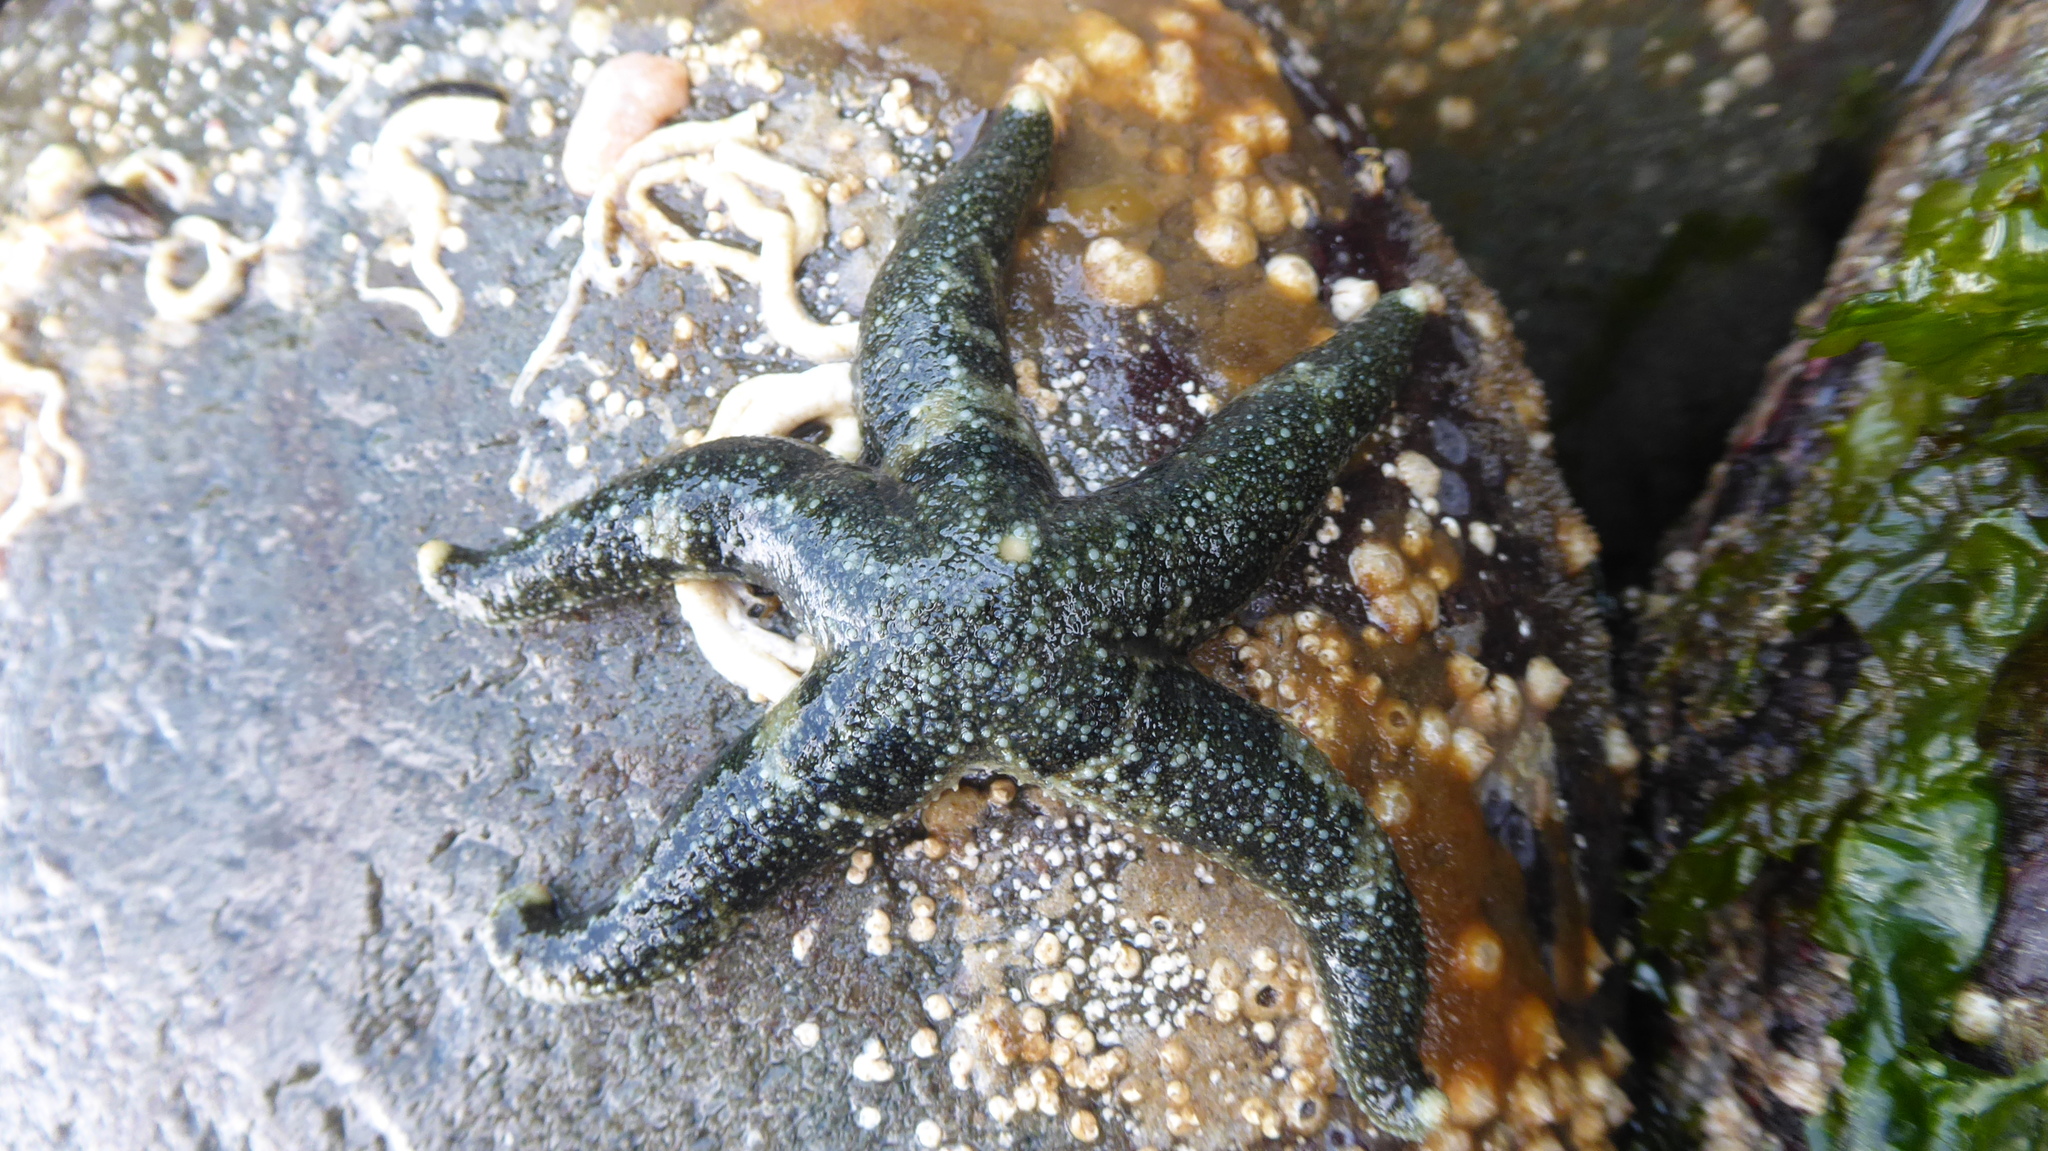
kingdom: Animalia
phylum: Echinodermata
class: Asteroidea
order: Forcipulatida
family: Asteriidae
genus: Evasterias
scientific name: Evasterias troschelii
